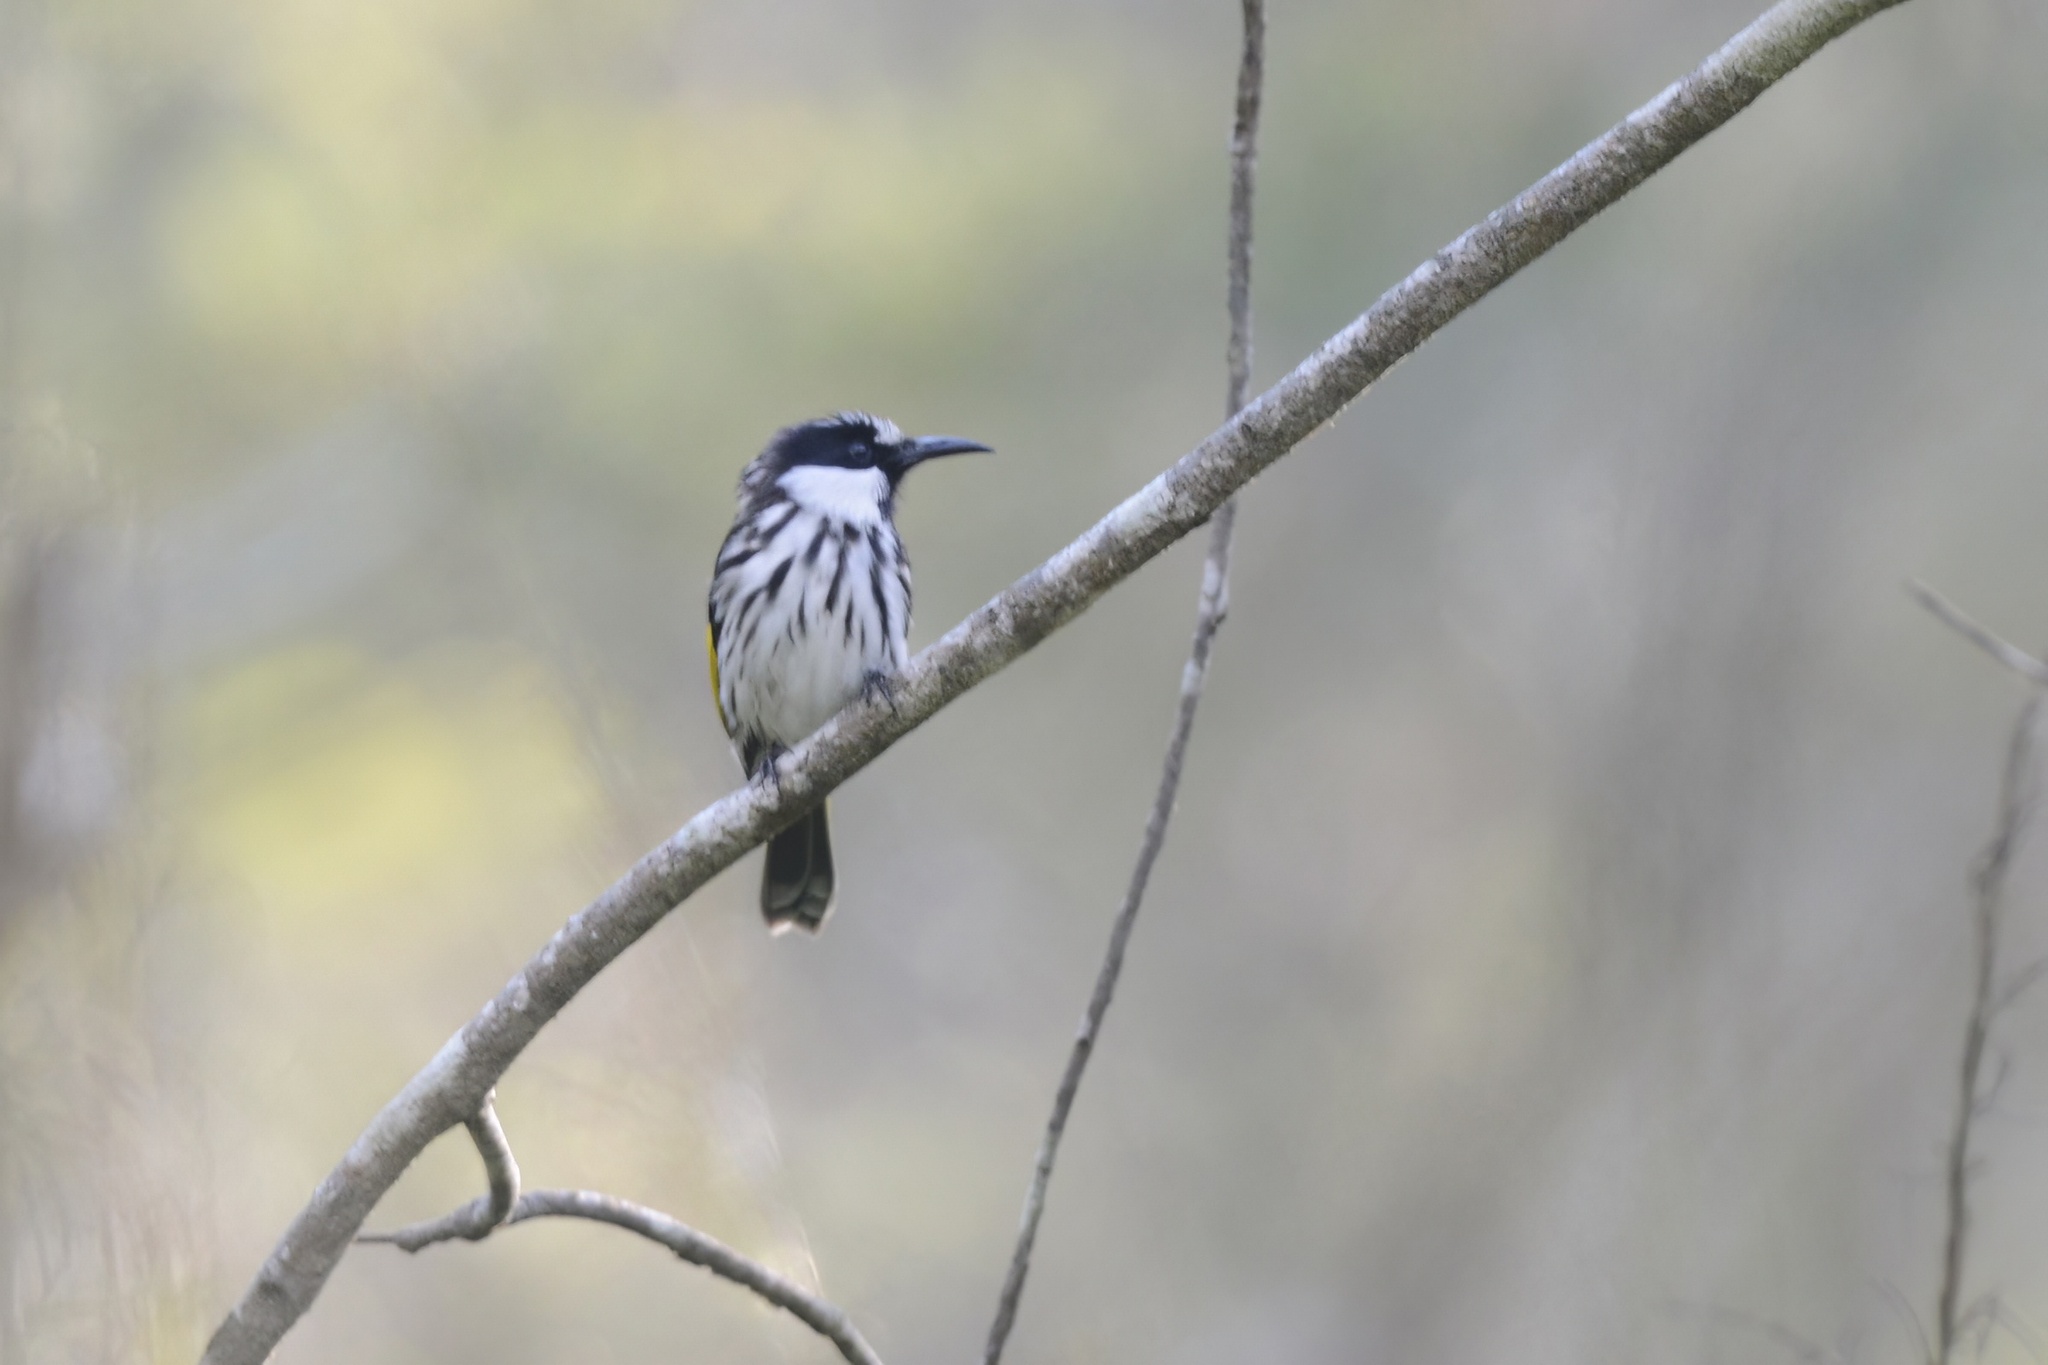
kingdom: Animalia
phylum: Chordata
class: Aves
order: Passeriformes
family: Meliphagidae
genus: Phylidonyris
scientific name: Phylidonyris niger
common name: White-cheeked honeyeater
